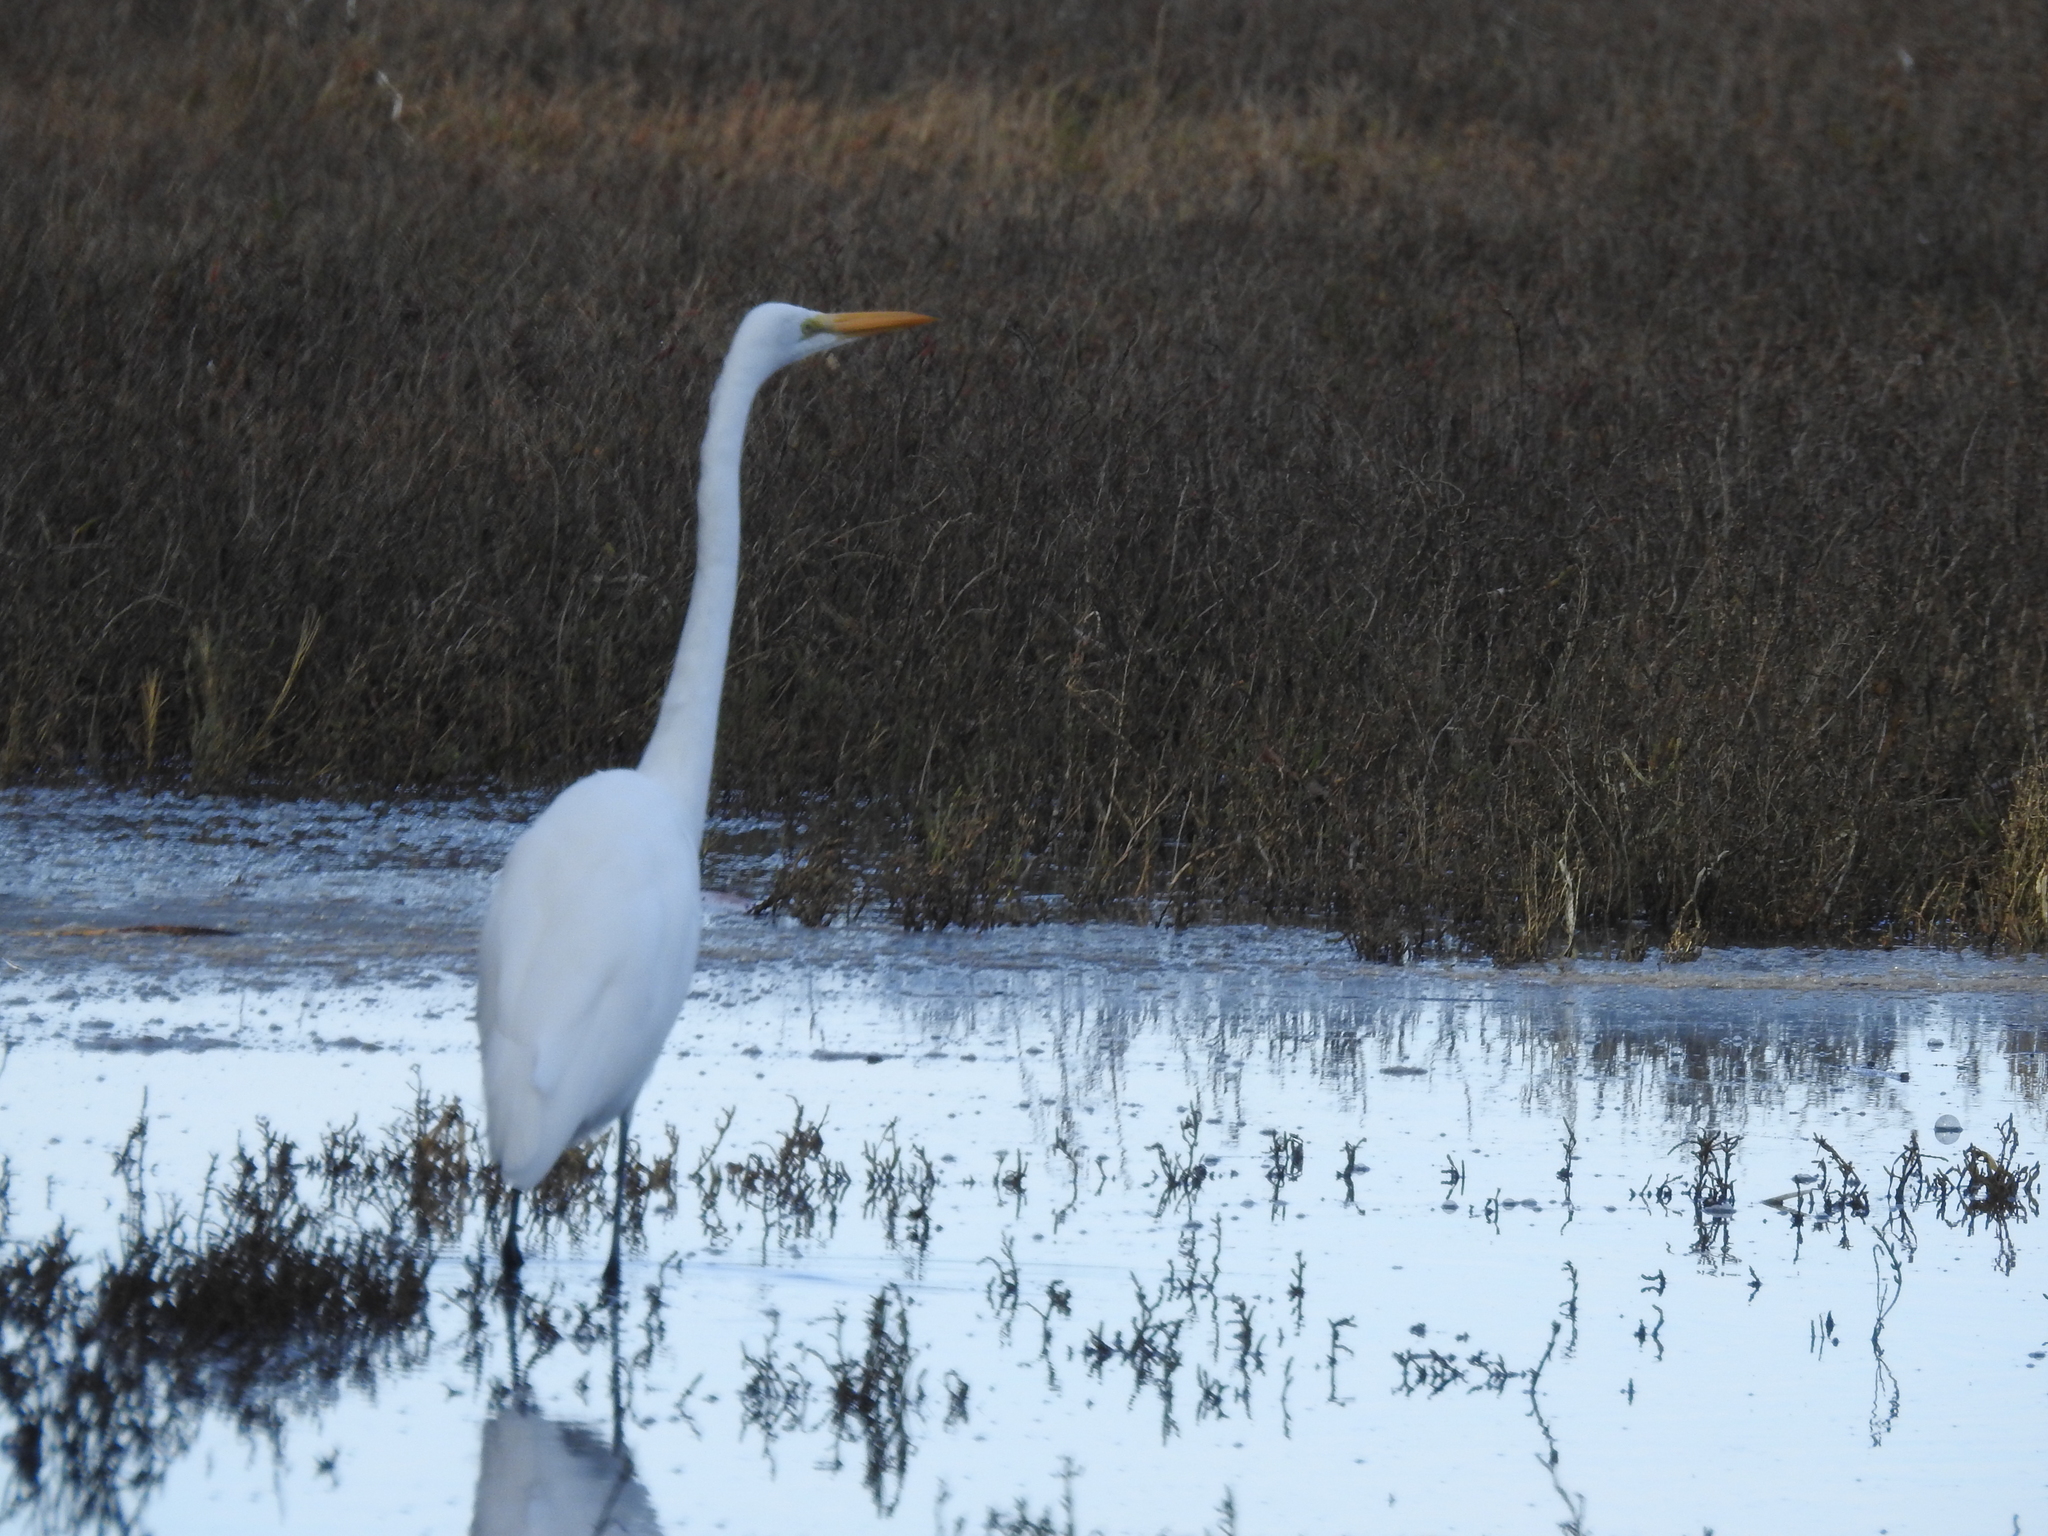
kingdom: Animalia
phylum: Chordata
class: Aves
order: Pelecaniformes
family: Ardeidae
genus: Ardea
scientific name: Ardea alba
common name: Great egret
